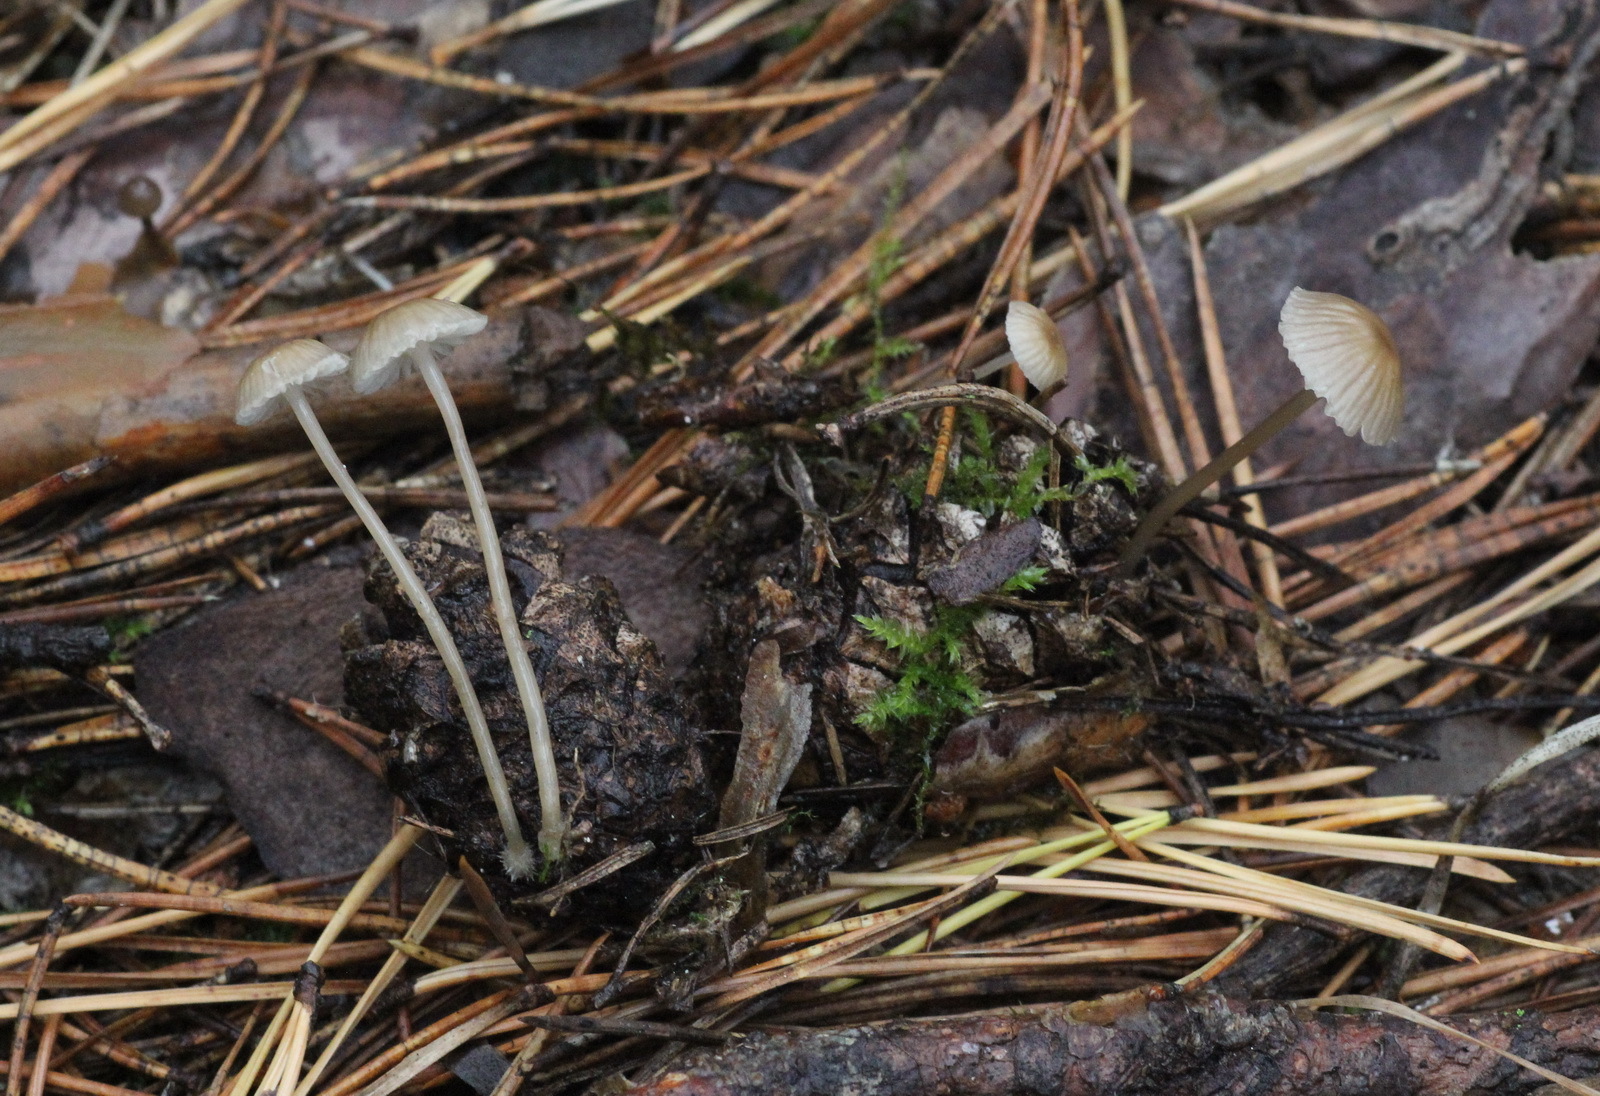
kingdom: Fungi
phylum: Basidiomycota
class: Agaricomycetes
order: Agaricales
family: Mycenaceae
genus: Mycena
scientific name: Mycena vulgaris
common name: Vulgar bonnet
